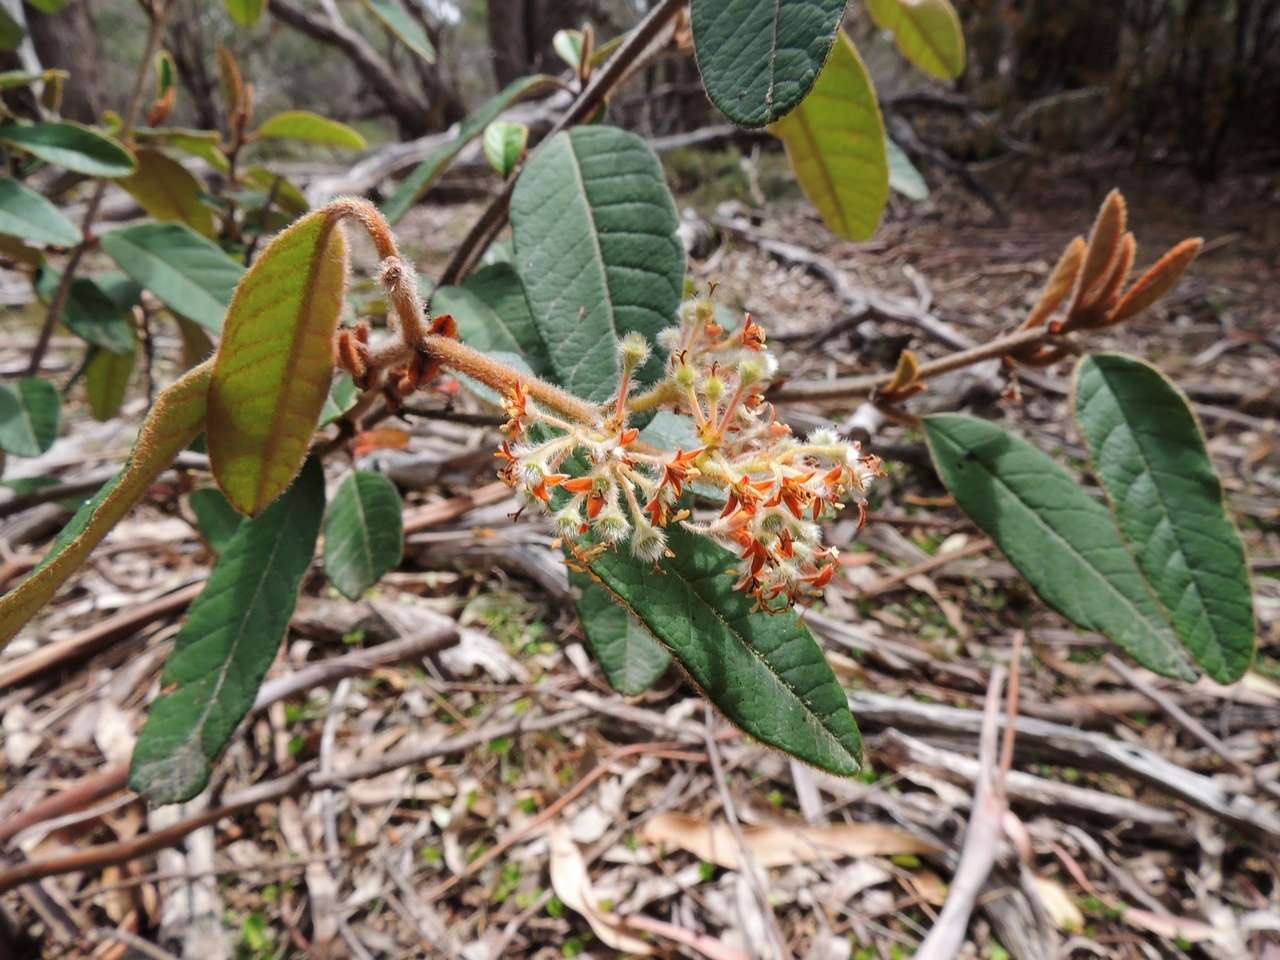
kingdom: Plantae
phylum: Tracheophyta
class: Magnoliopsida
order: Rosales
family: Rhamnaceae
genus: Pomaderris
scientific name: Pomaderris wendlandiana
